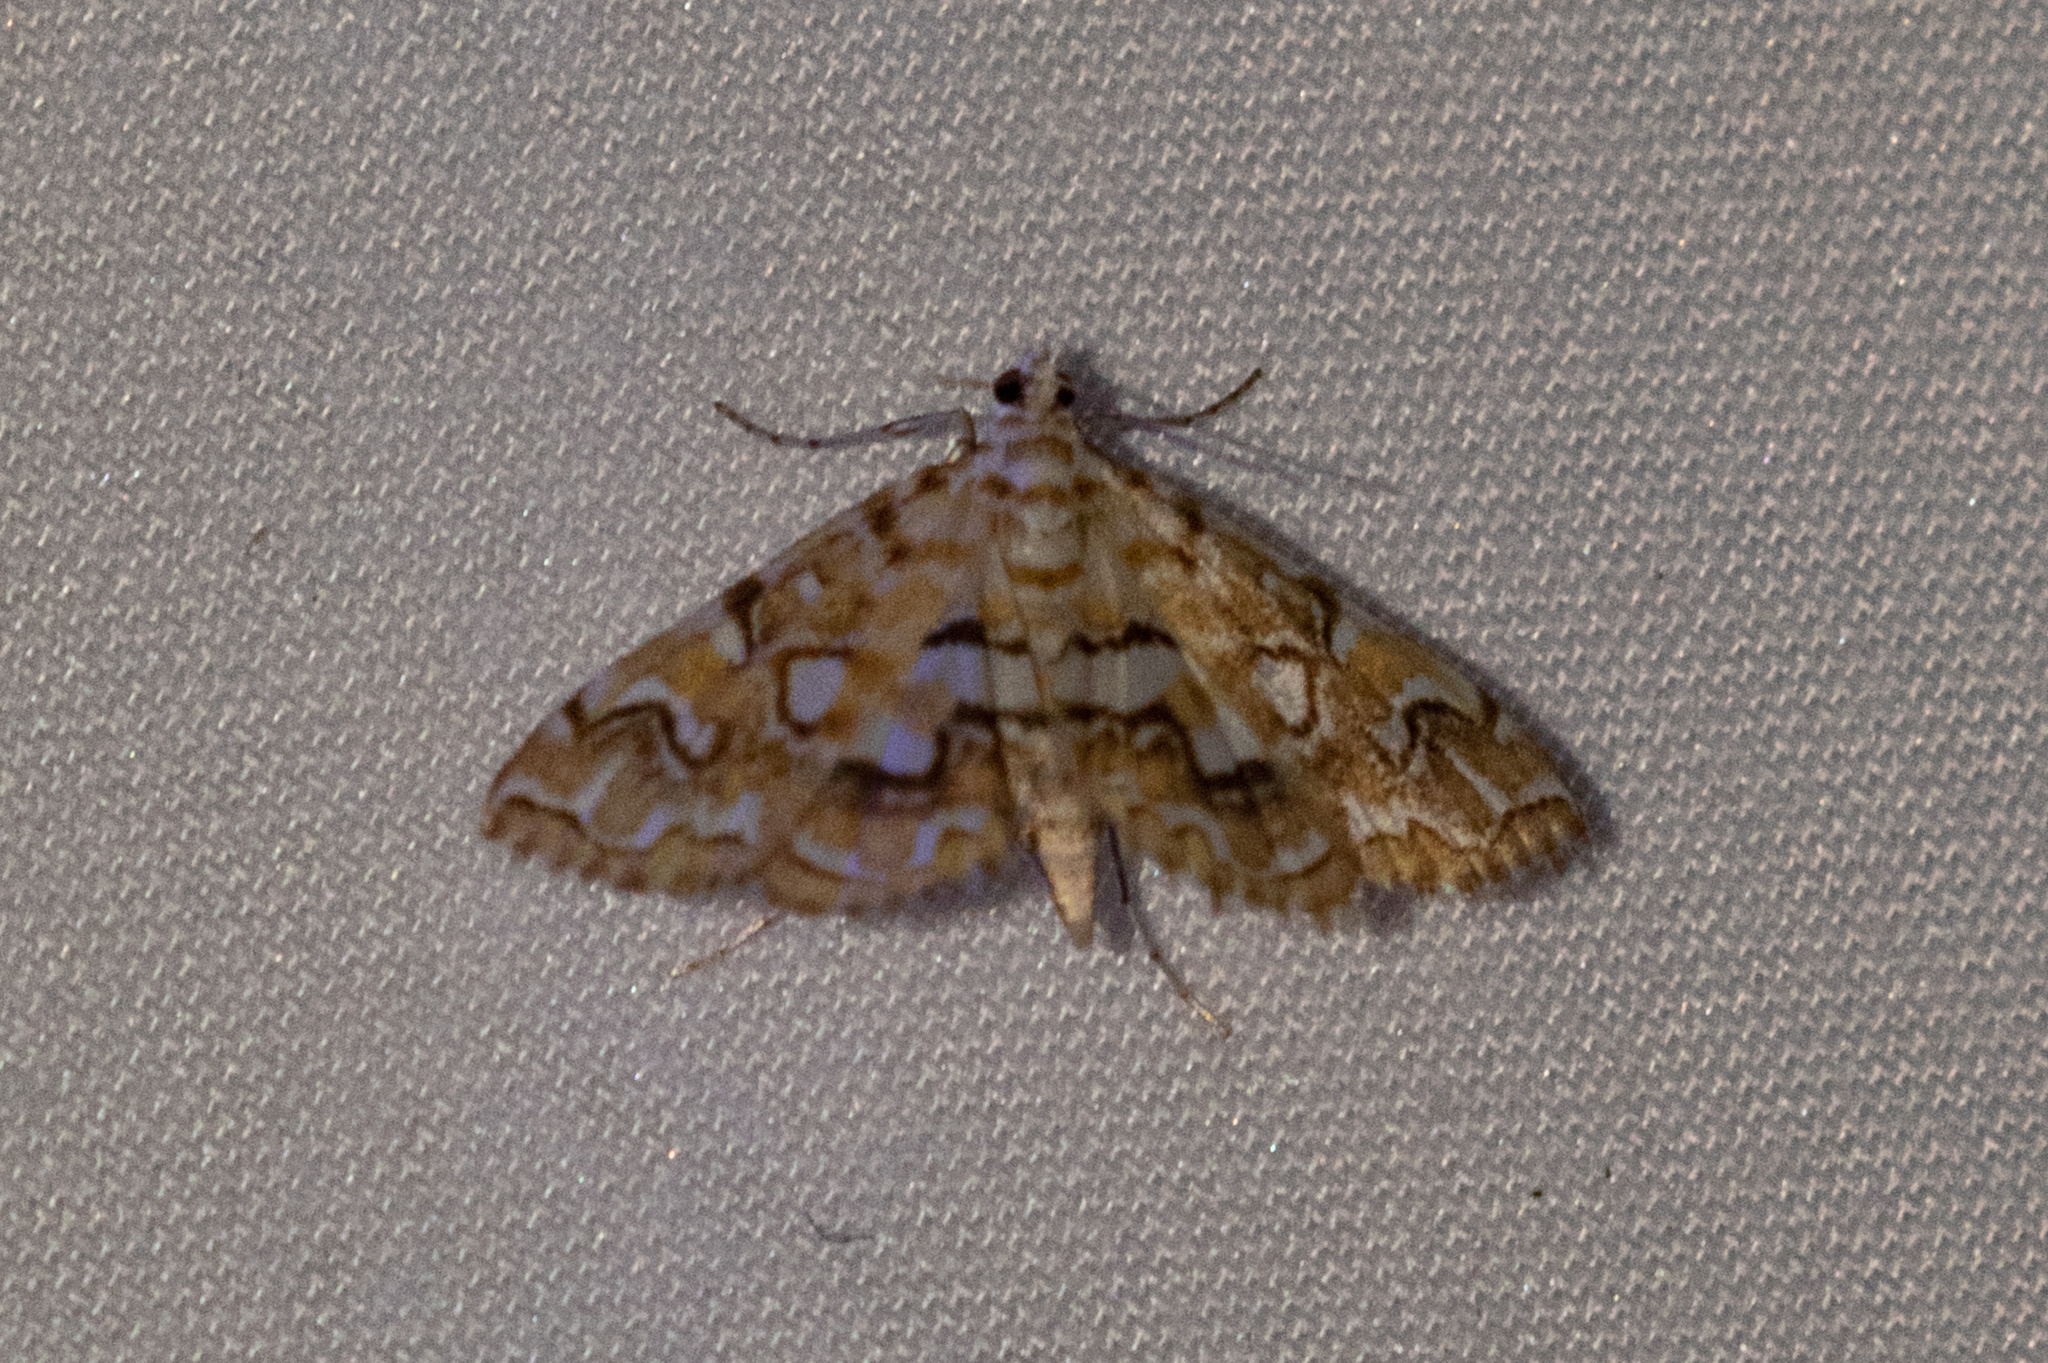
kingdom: Animalia
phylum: Arthropoda
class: Insecta
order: Lepidoptera
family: Crambidae
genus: Elophila
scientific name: Elophila icciusalis
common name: Pondside pyralid moth
